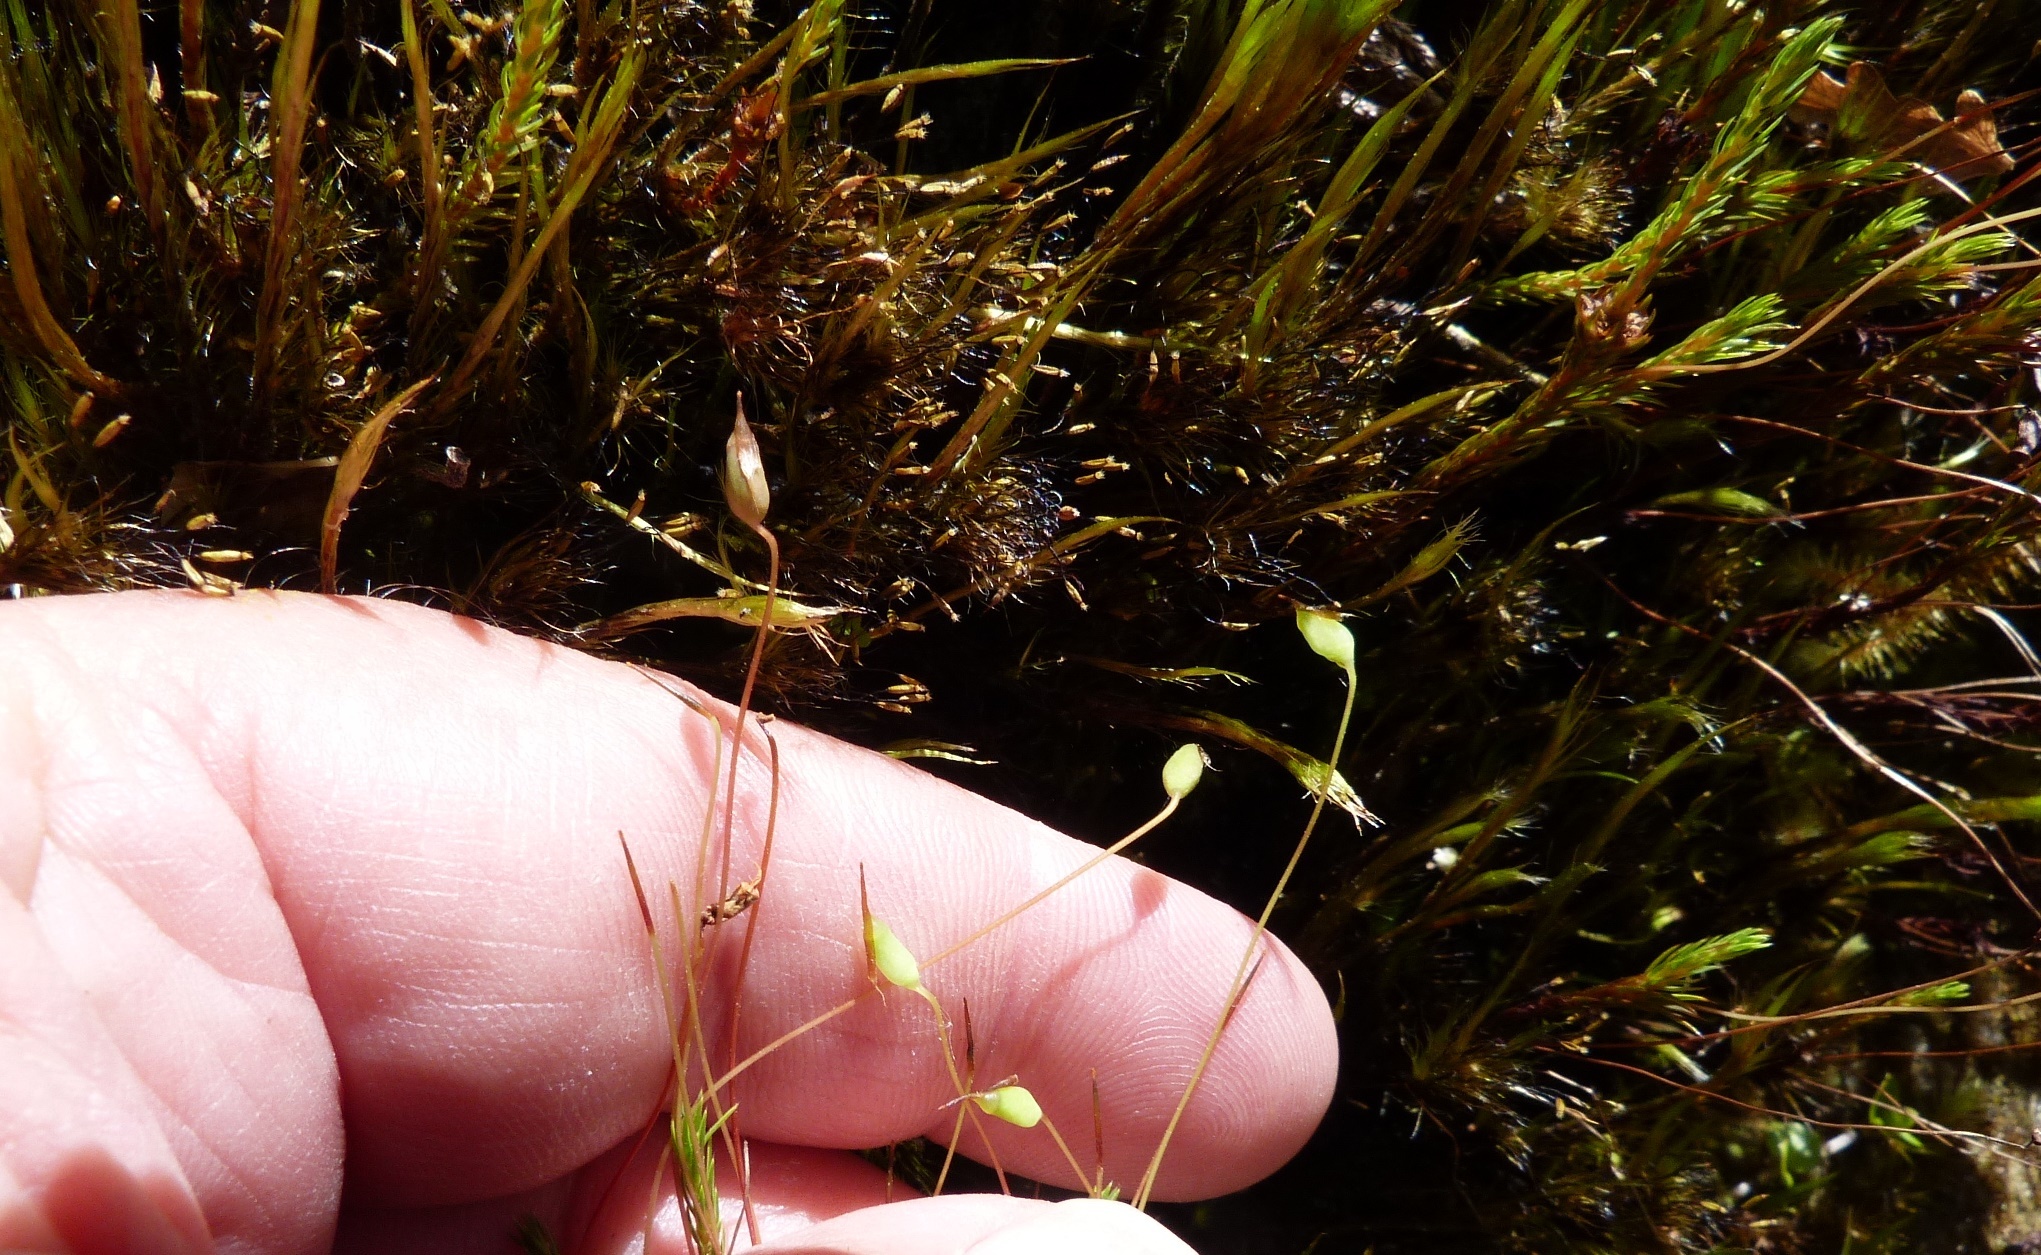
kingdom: Plantae
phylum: Bryophyta
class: Polytrichopsida
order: Polytrichales
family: Polytrichaceae
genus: Polytrichadelphus
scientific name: Polytrichadelphus magellanicus
